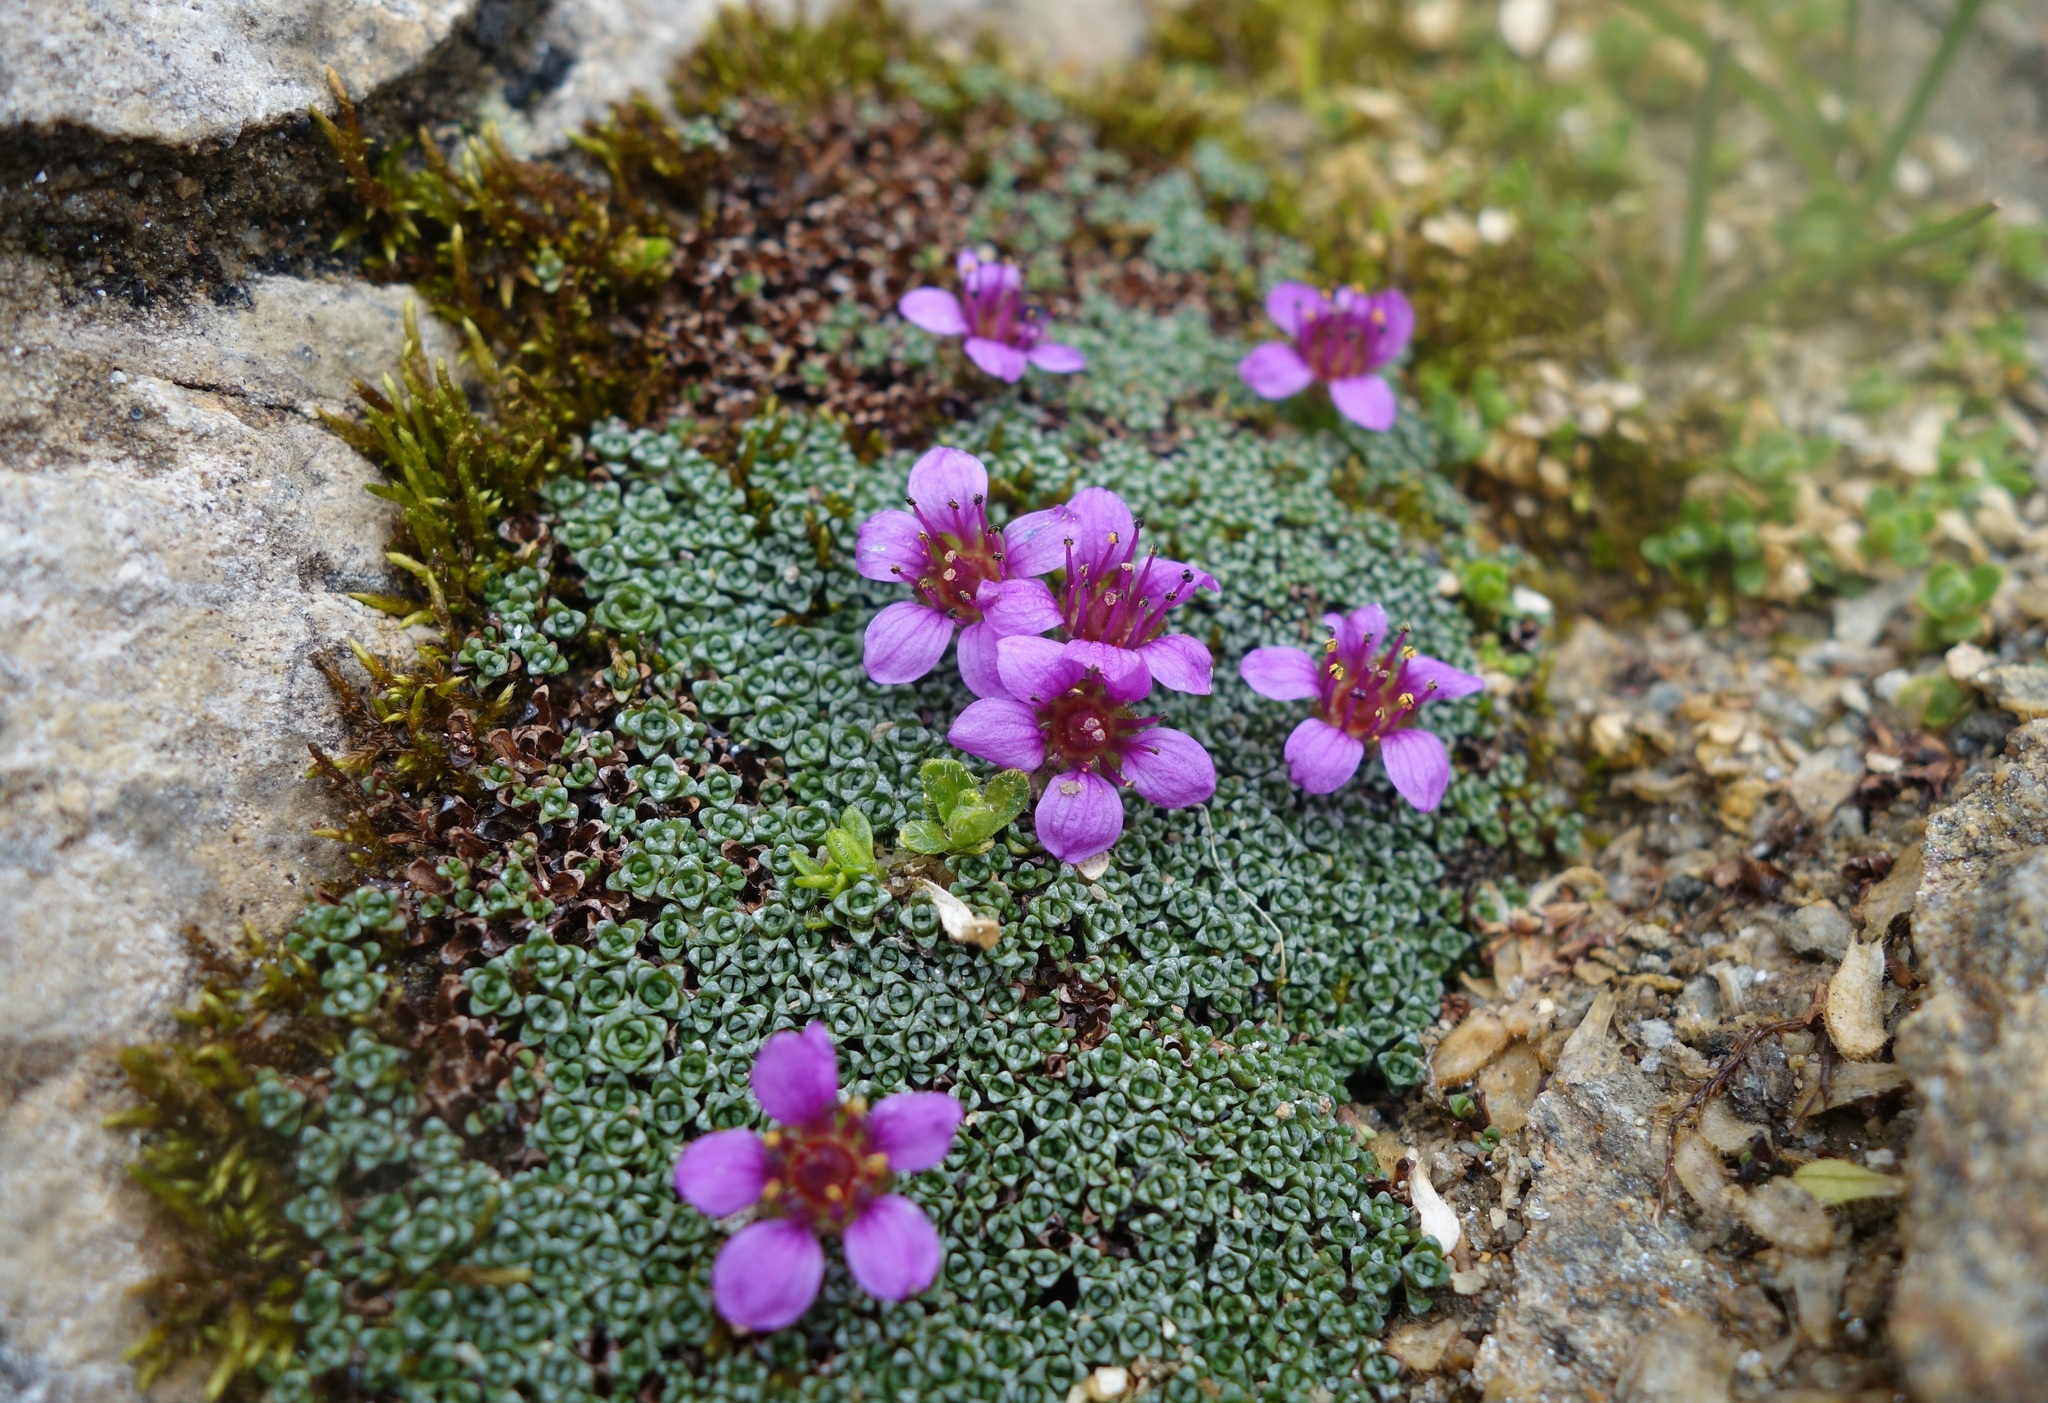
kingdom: Plantae
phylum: Tracheophyta
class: Magnoliopsida
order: Saxifragales
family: Saxifragaceae
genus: Saxifraga
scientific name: Saxifraga oppositifolia
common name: Purple saxifrage
